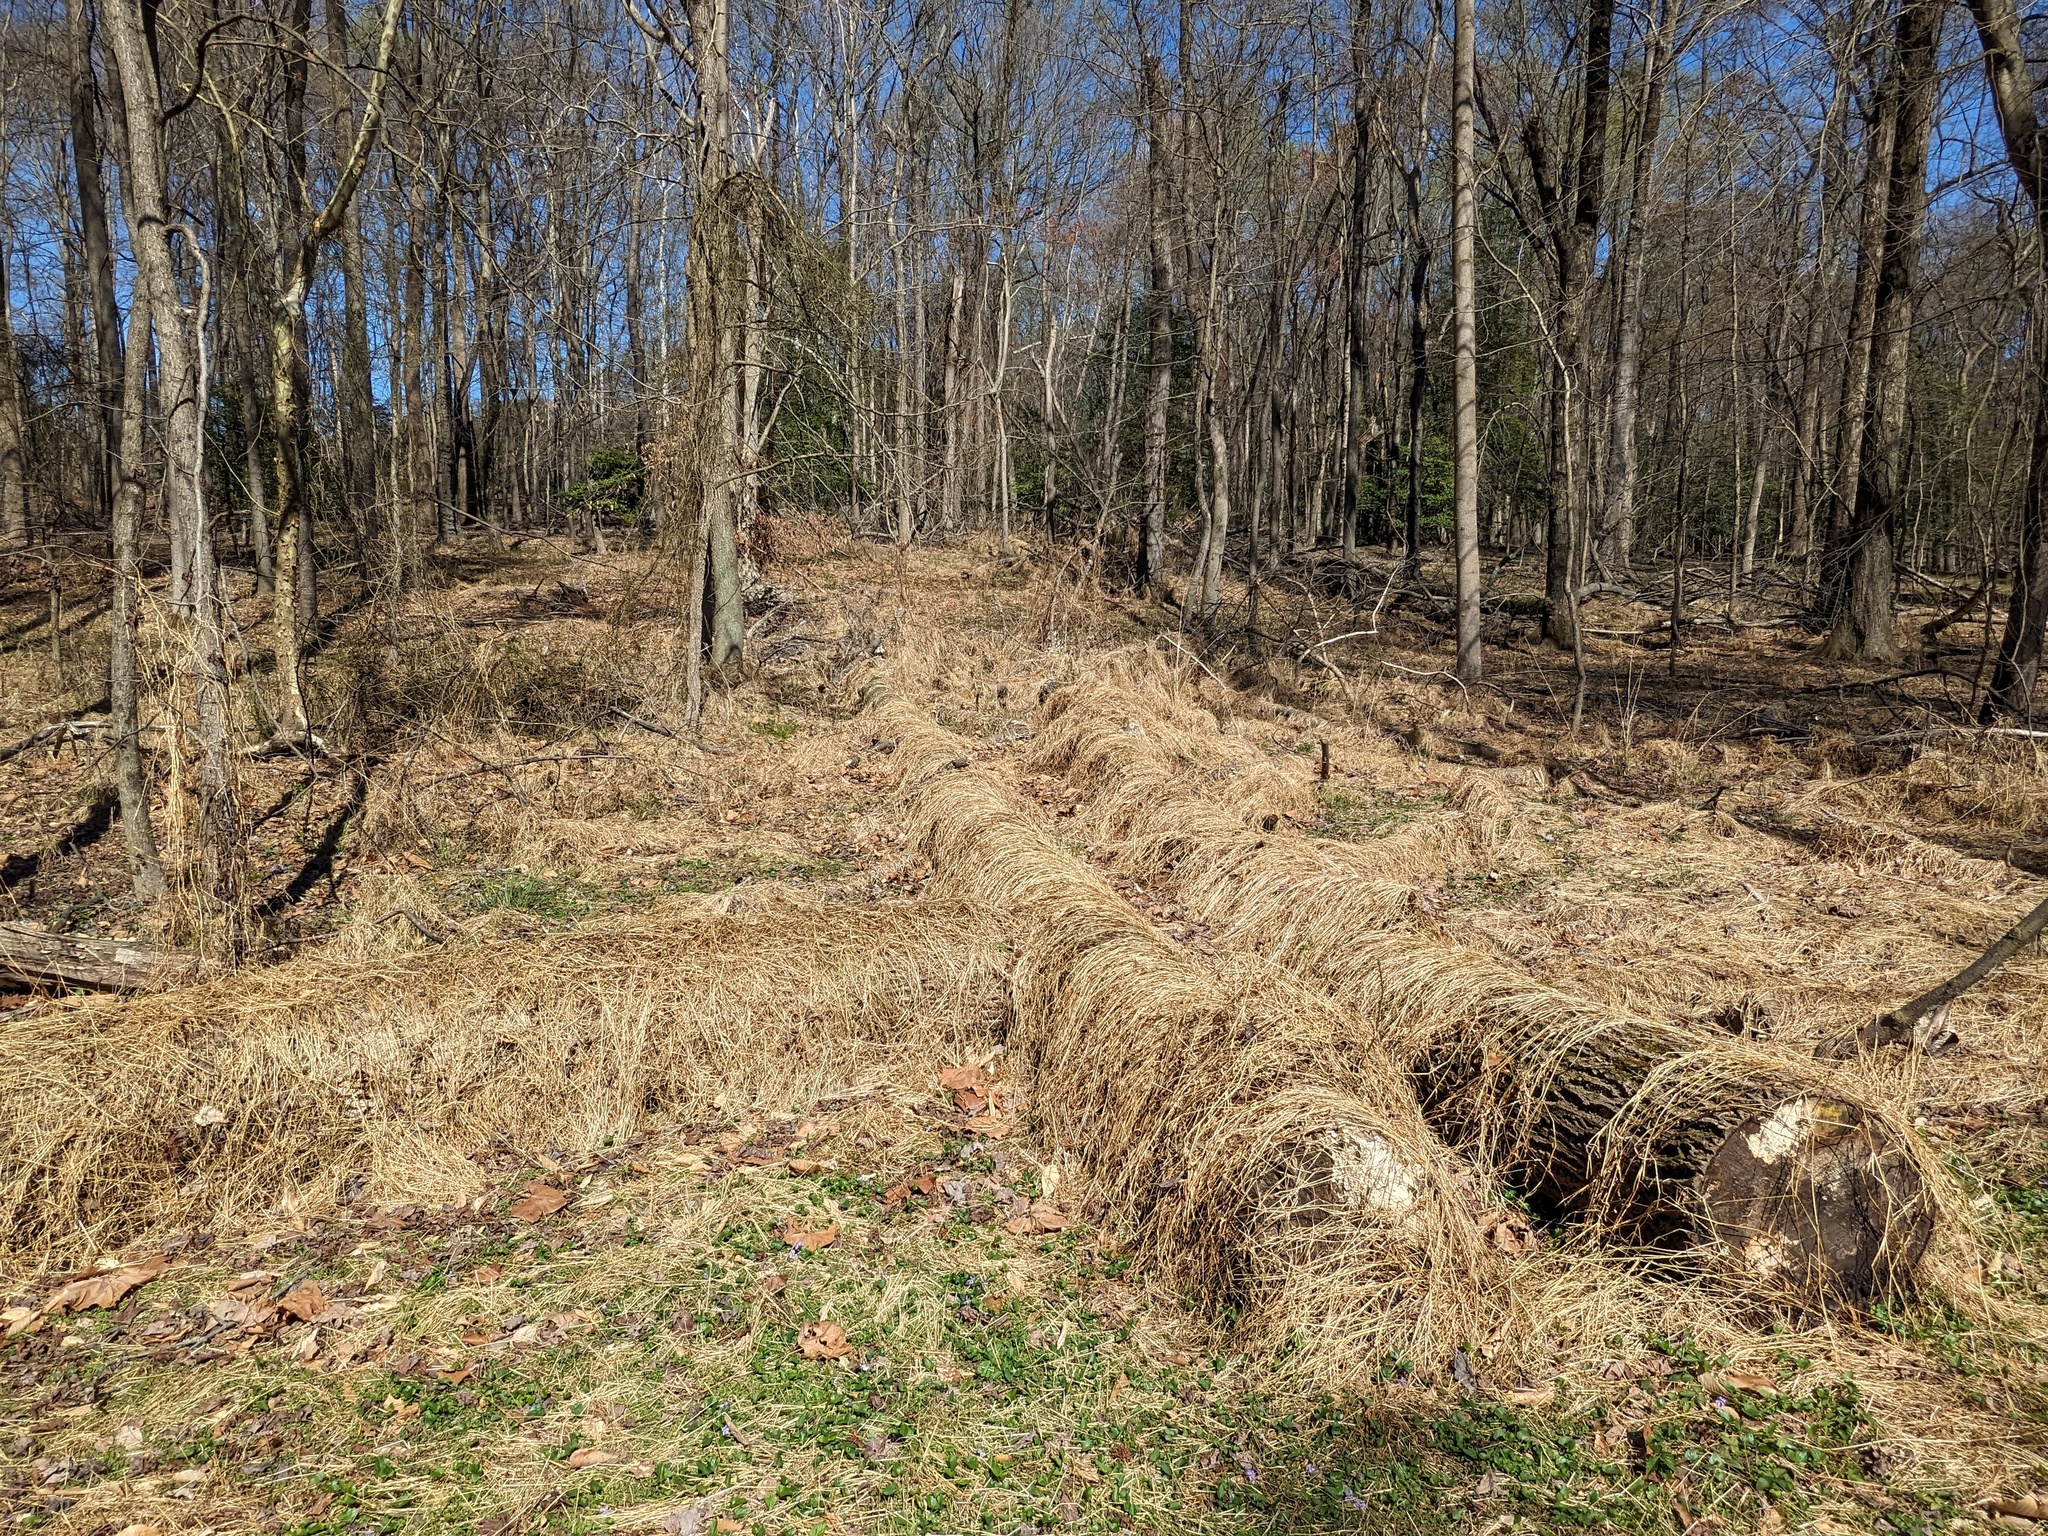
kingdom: Plantae
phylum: Tracheophyta
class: Liliopsida
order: Poales
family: Poaceae
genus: Microstegium
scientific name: Microstegium vimineum
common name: Japanese stiltgrass
